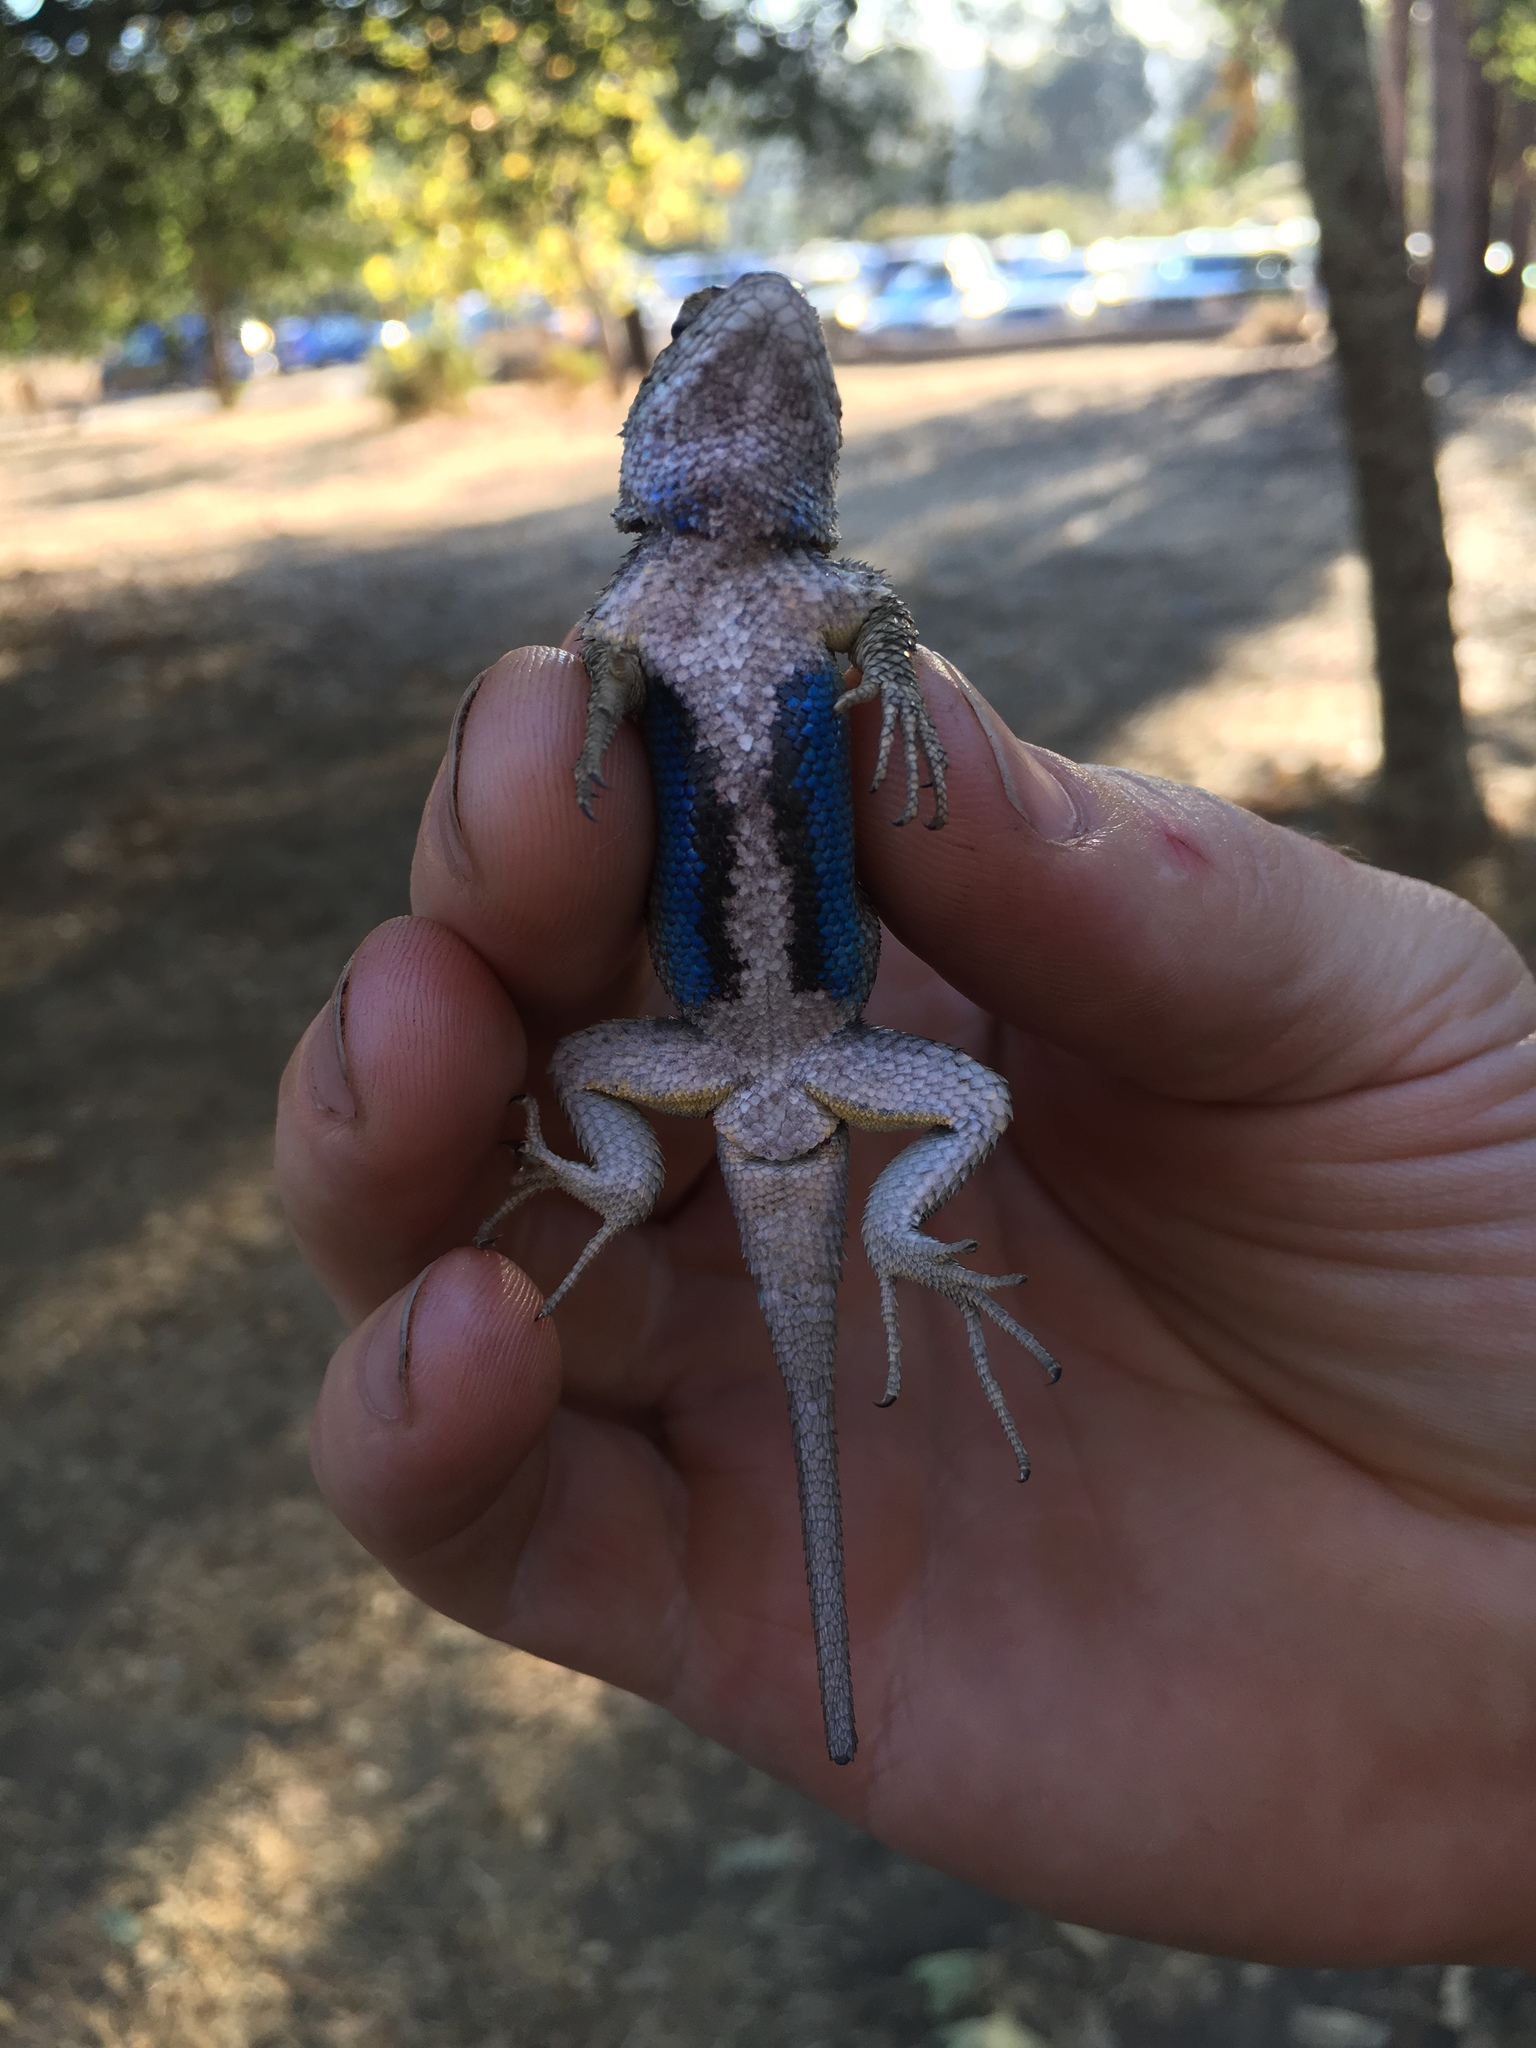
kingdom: Animalia
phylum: Chordata
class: Squamata
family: Phrynosomatidae
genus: Sceloporus
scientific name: Sceloporus occidentalis
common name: Western fence lizard
